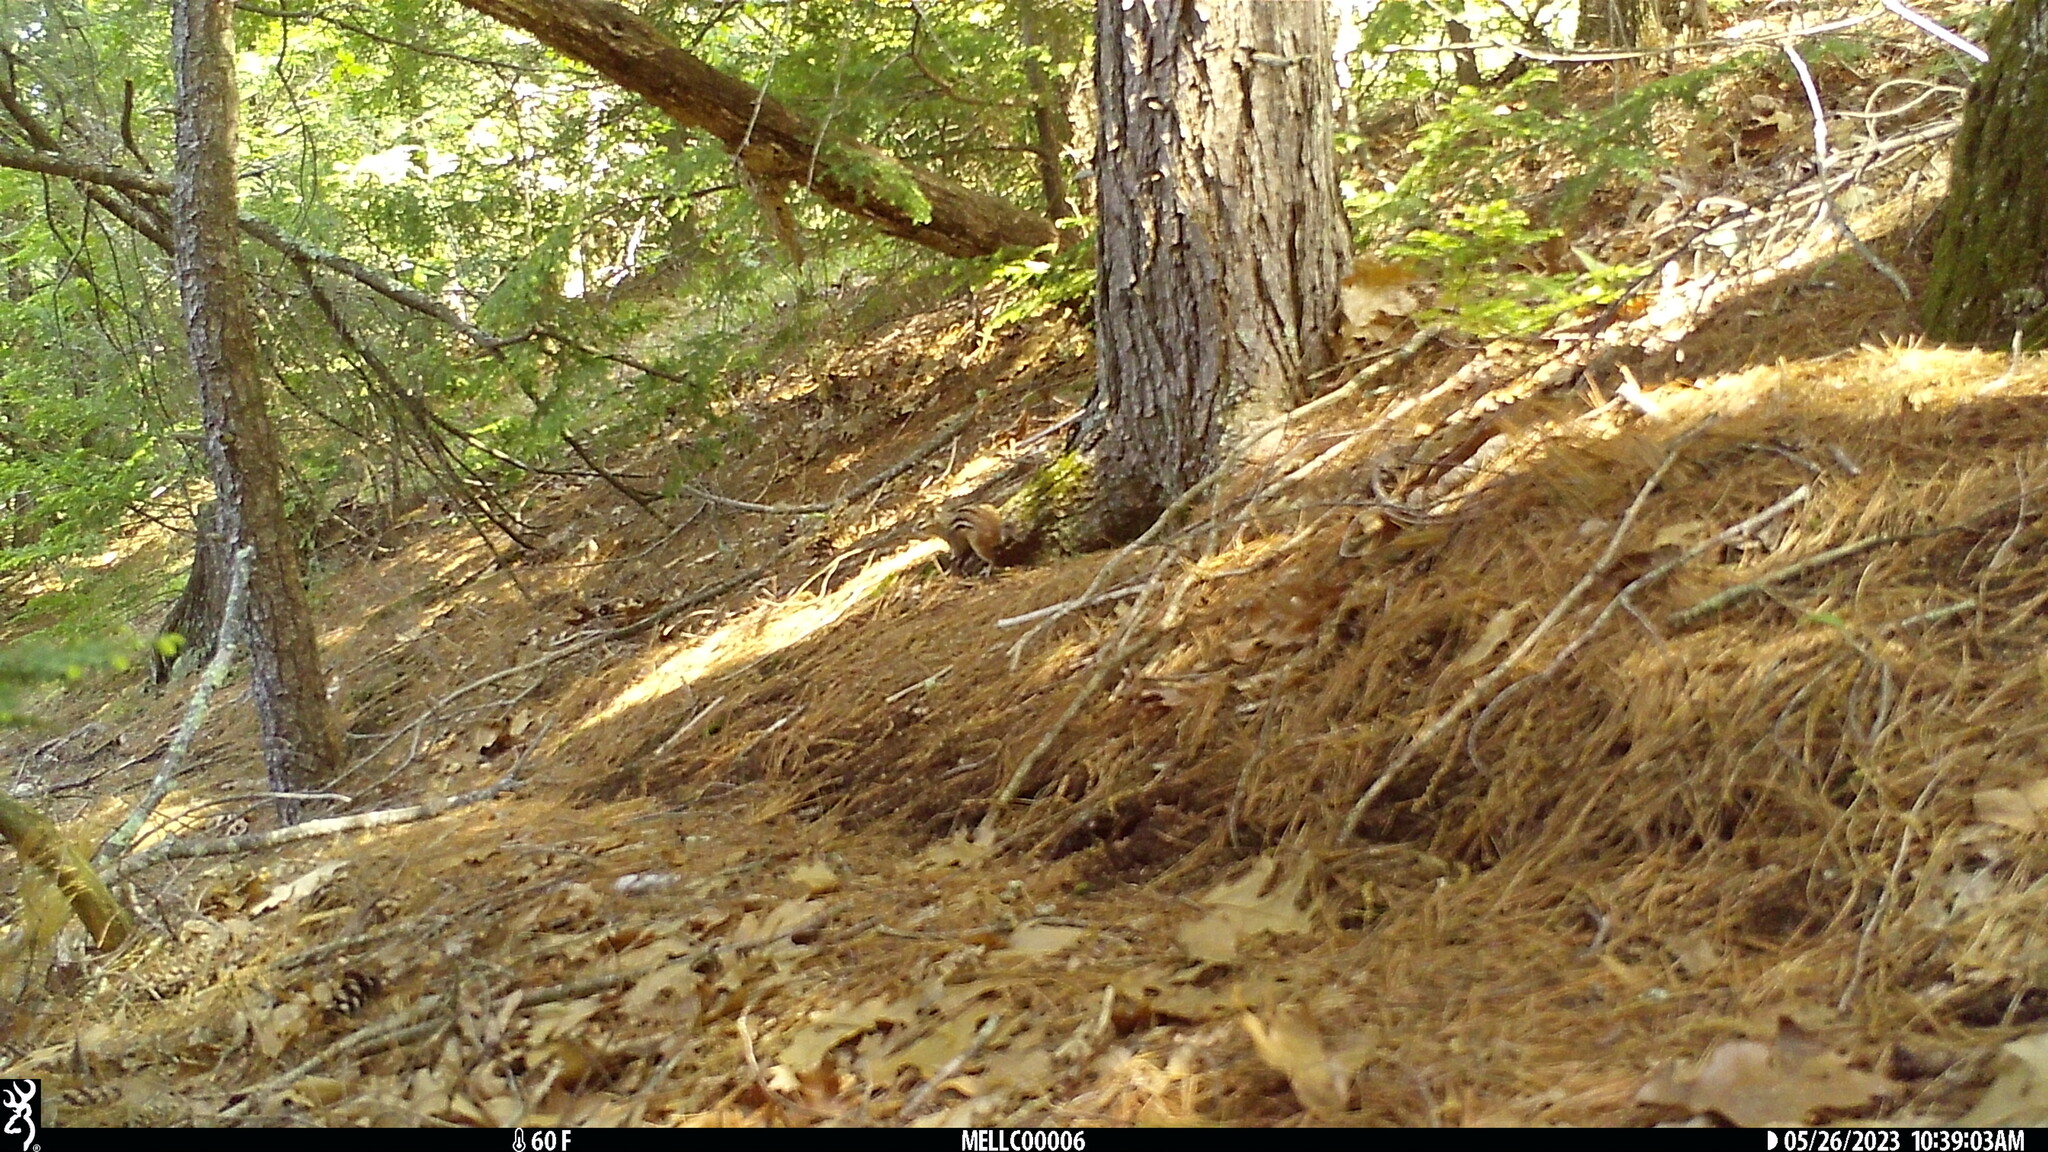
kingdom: Animalia
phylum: Chordata
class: Mammalia
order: Rodentia
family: Sciuridae
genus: Tamias
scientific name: Tamias striatus
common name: Eastern chipmunk
